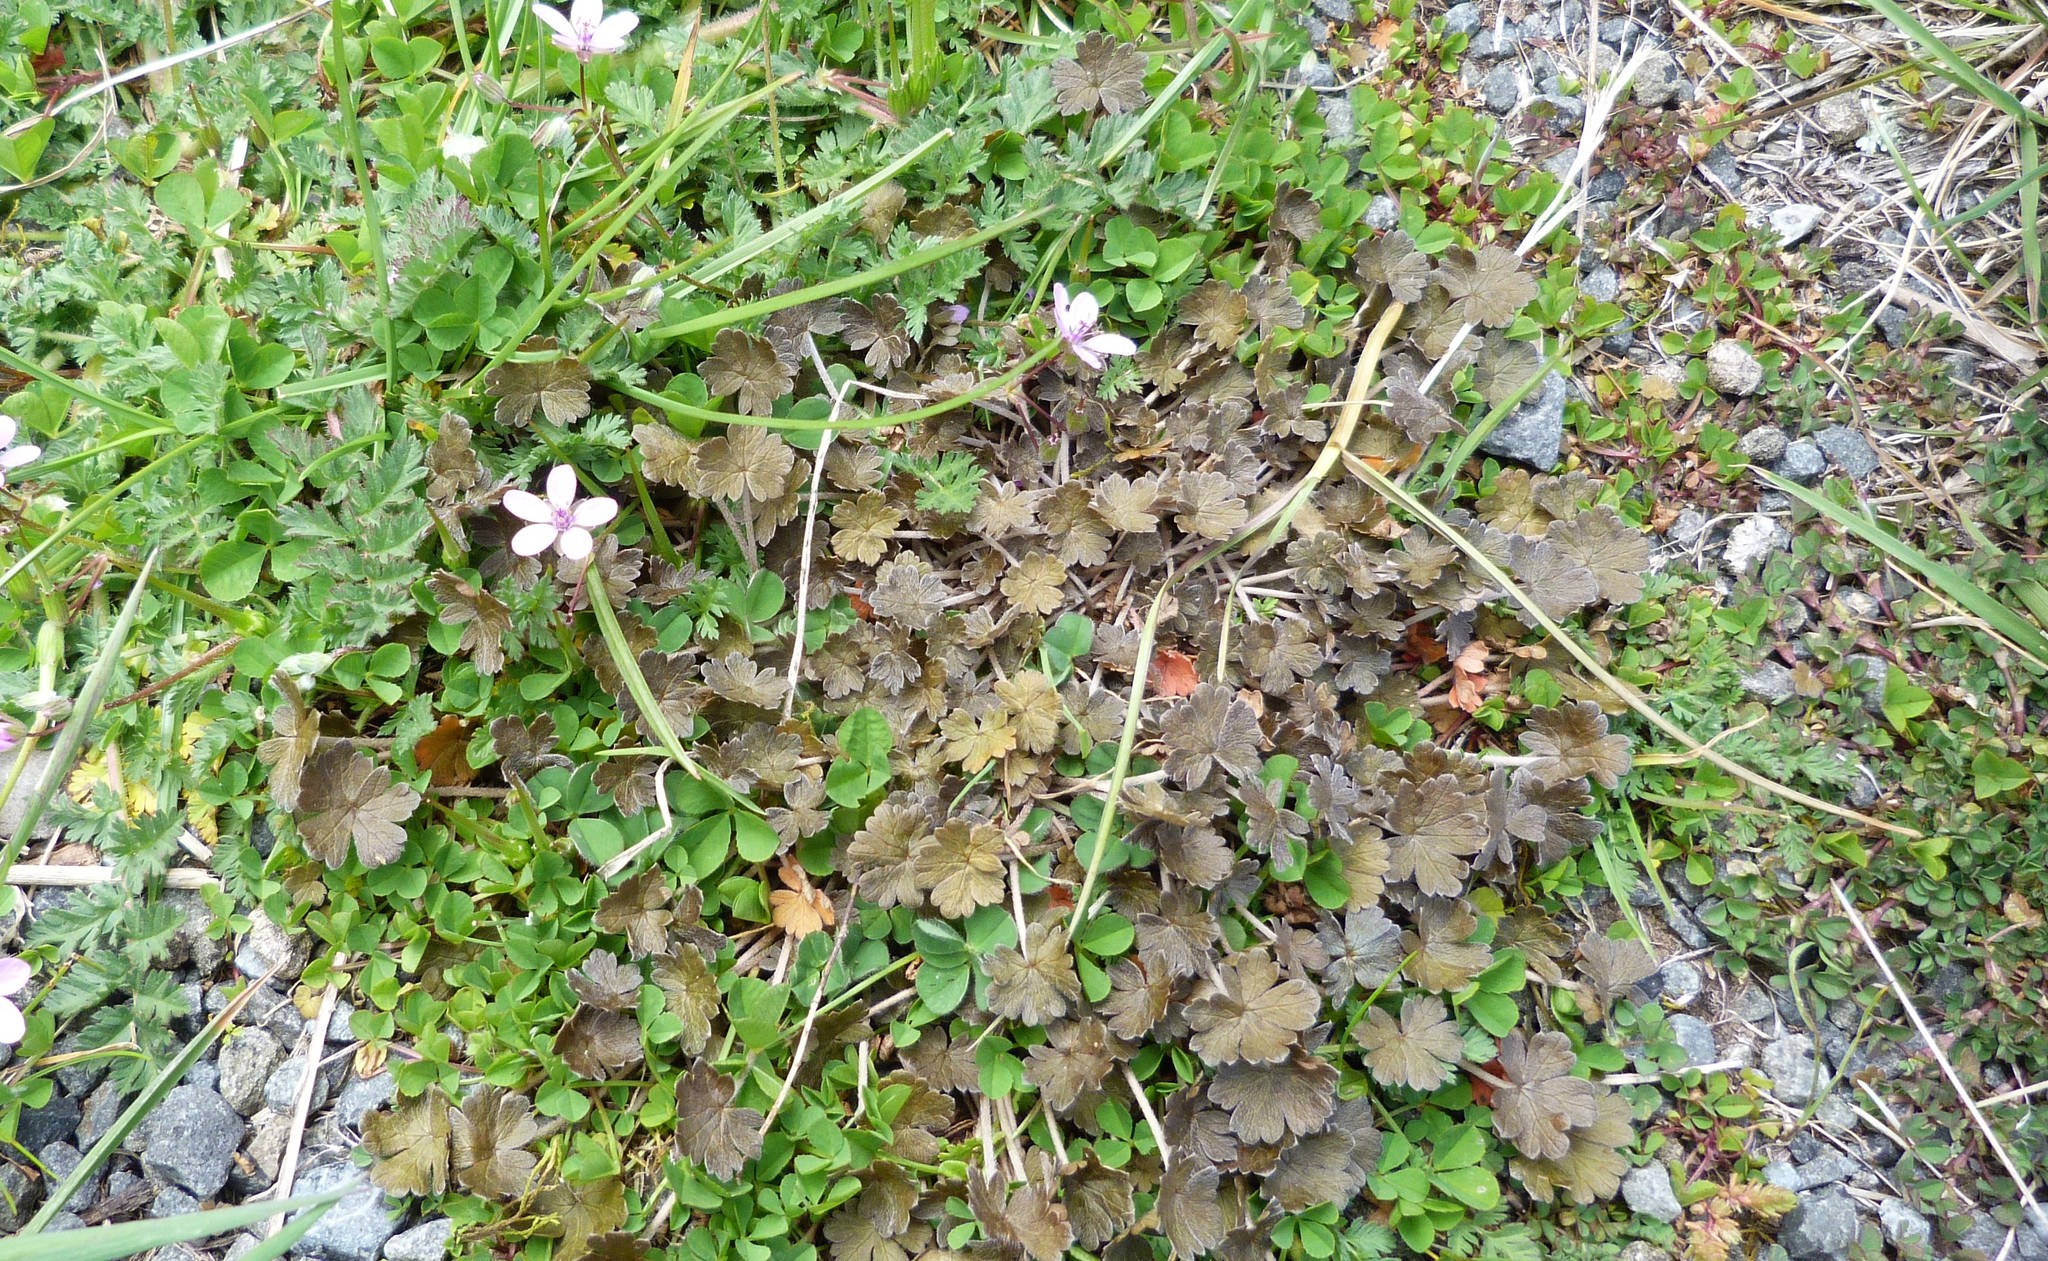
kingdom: Plantae
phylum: Tracheophyta
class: Magnoliopsida
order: Geraniales
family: Geraniaceae
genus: Geranium
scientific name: Geranium brevicaule
